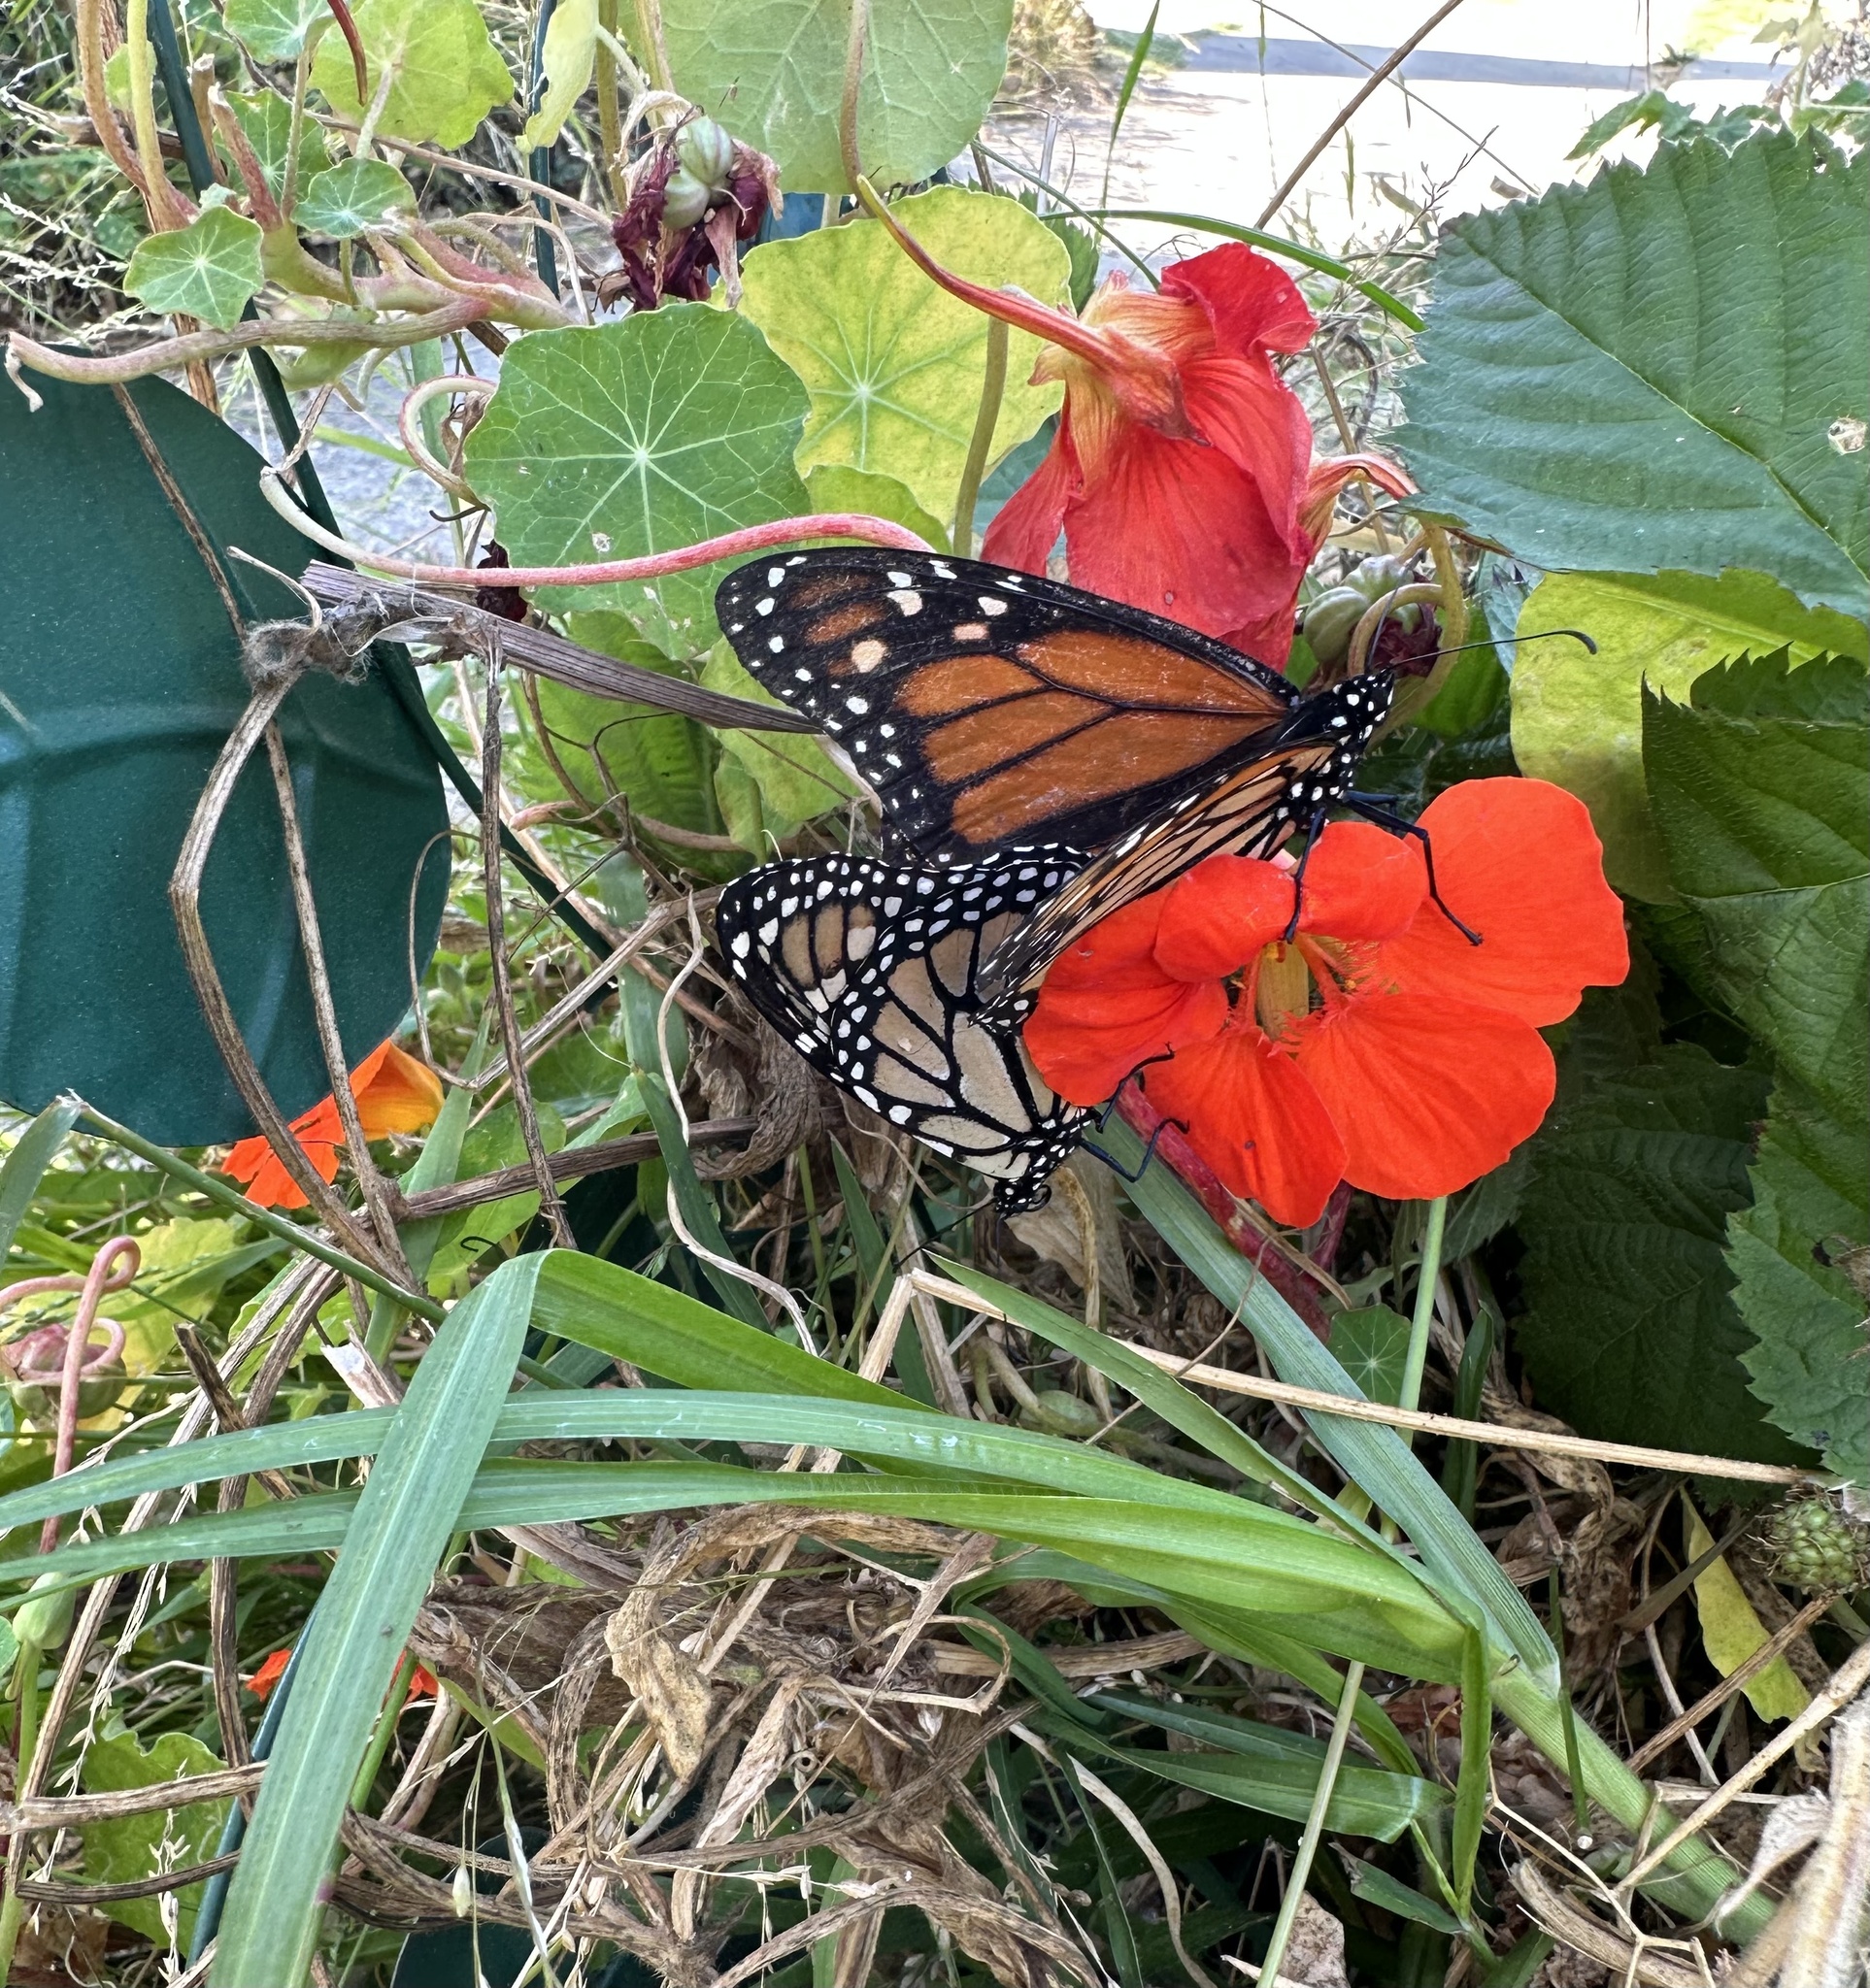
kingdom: Animalia
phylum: Arthropoda
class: Insecta
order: Lepidoptera
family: Nymphalidae
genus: Danaus
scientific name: Danaus plexippus
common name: Monarch
